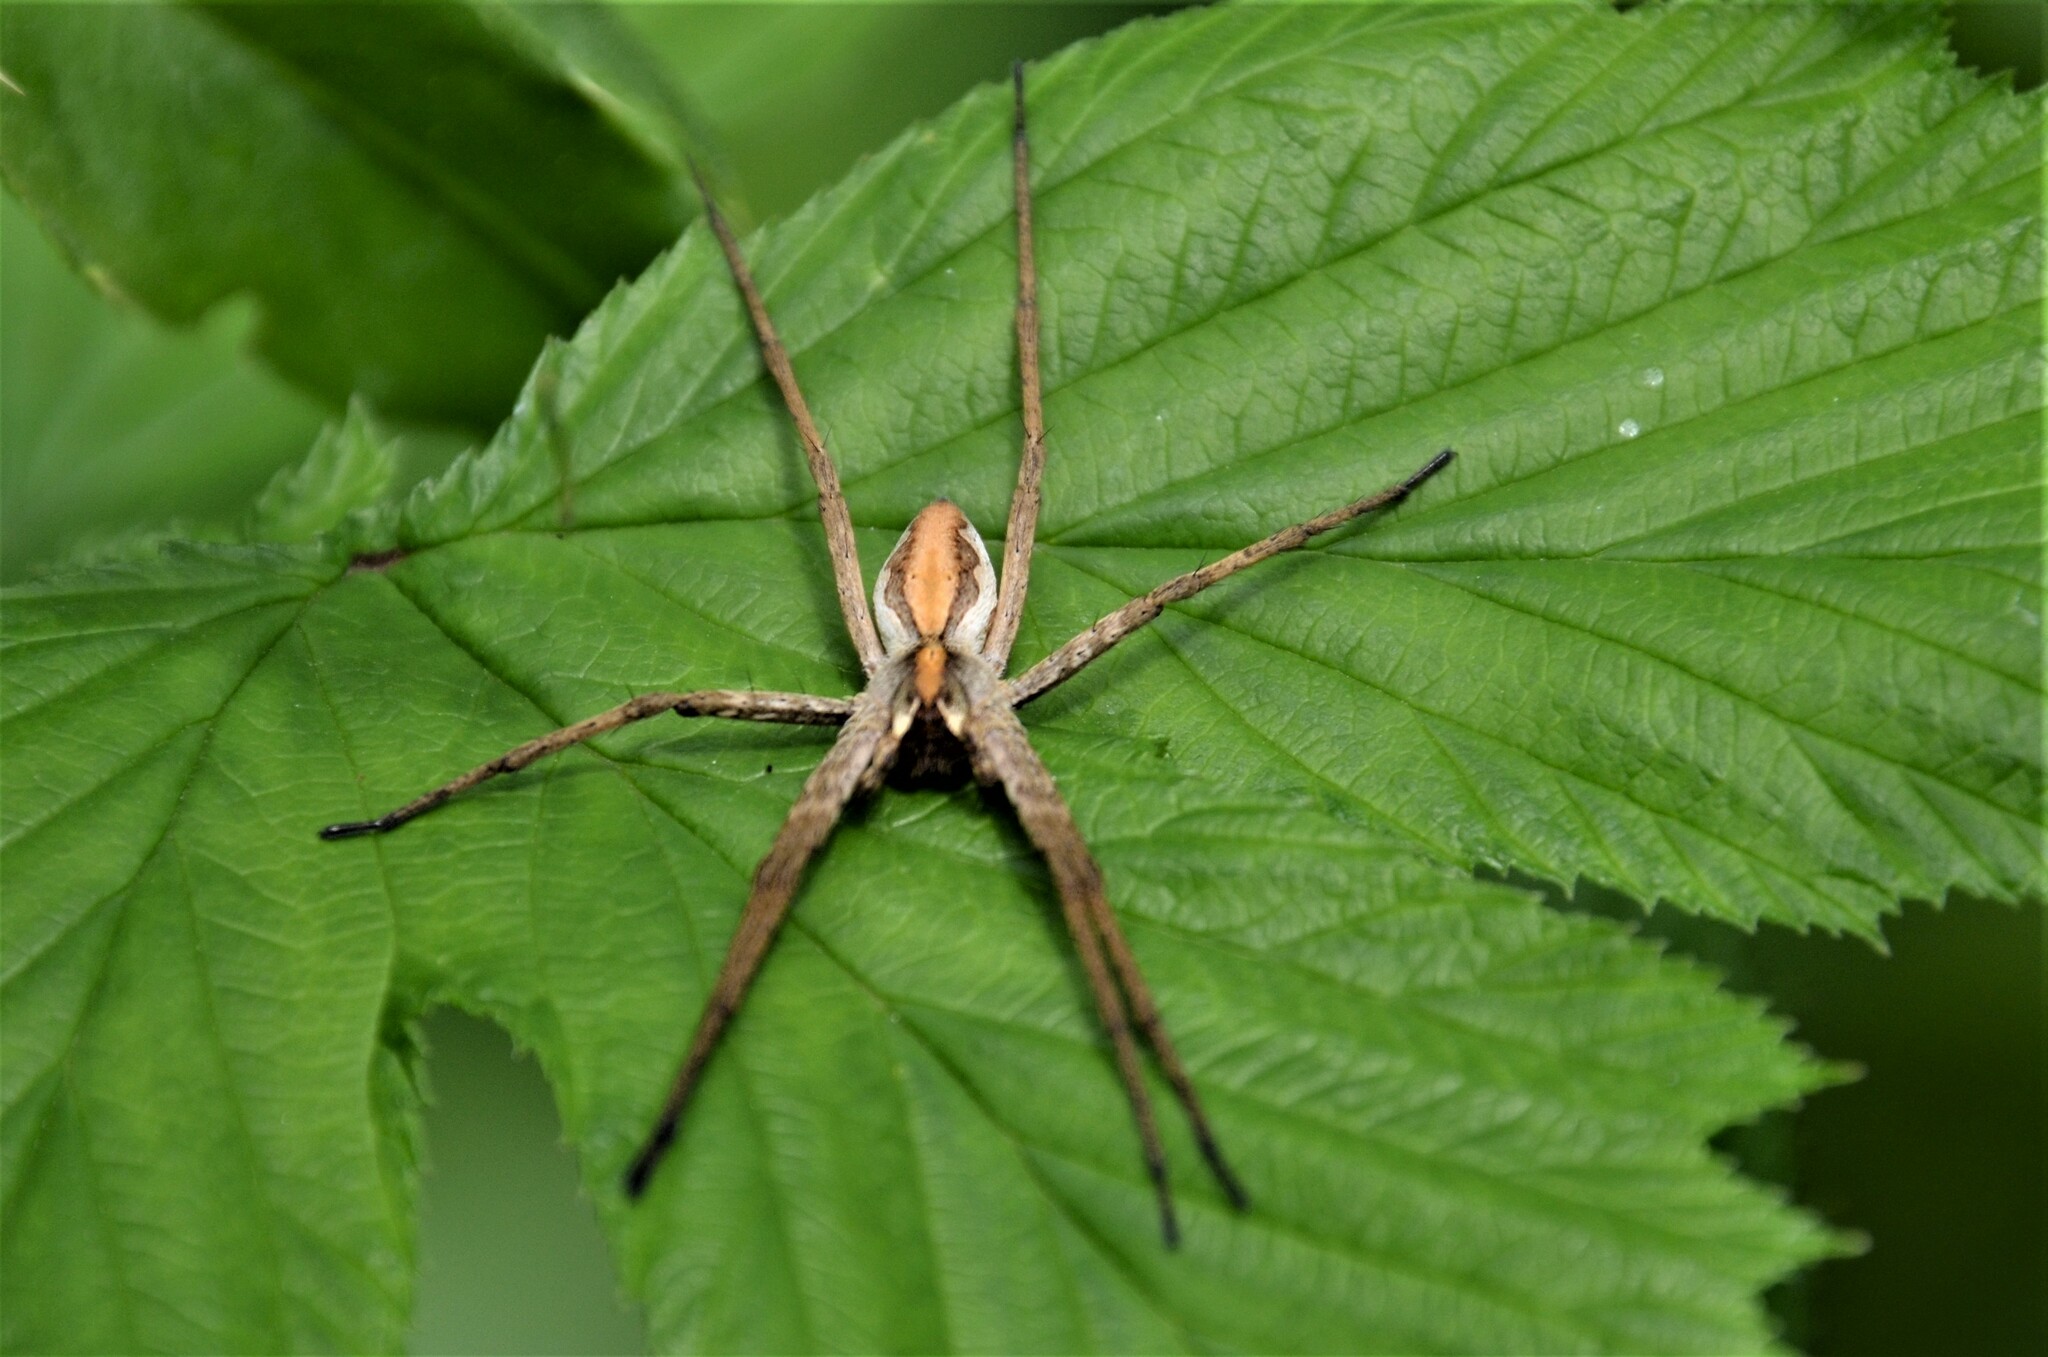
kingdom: Animalia
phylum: Arthropoda
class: Arachnida
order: Araneae
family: Pisauridae
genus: Pisaura
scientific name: Pisaura mirabilis
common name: Tent spider
